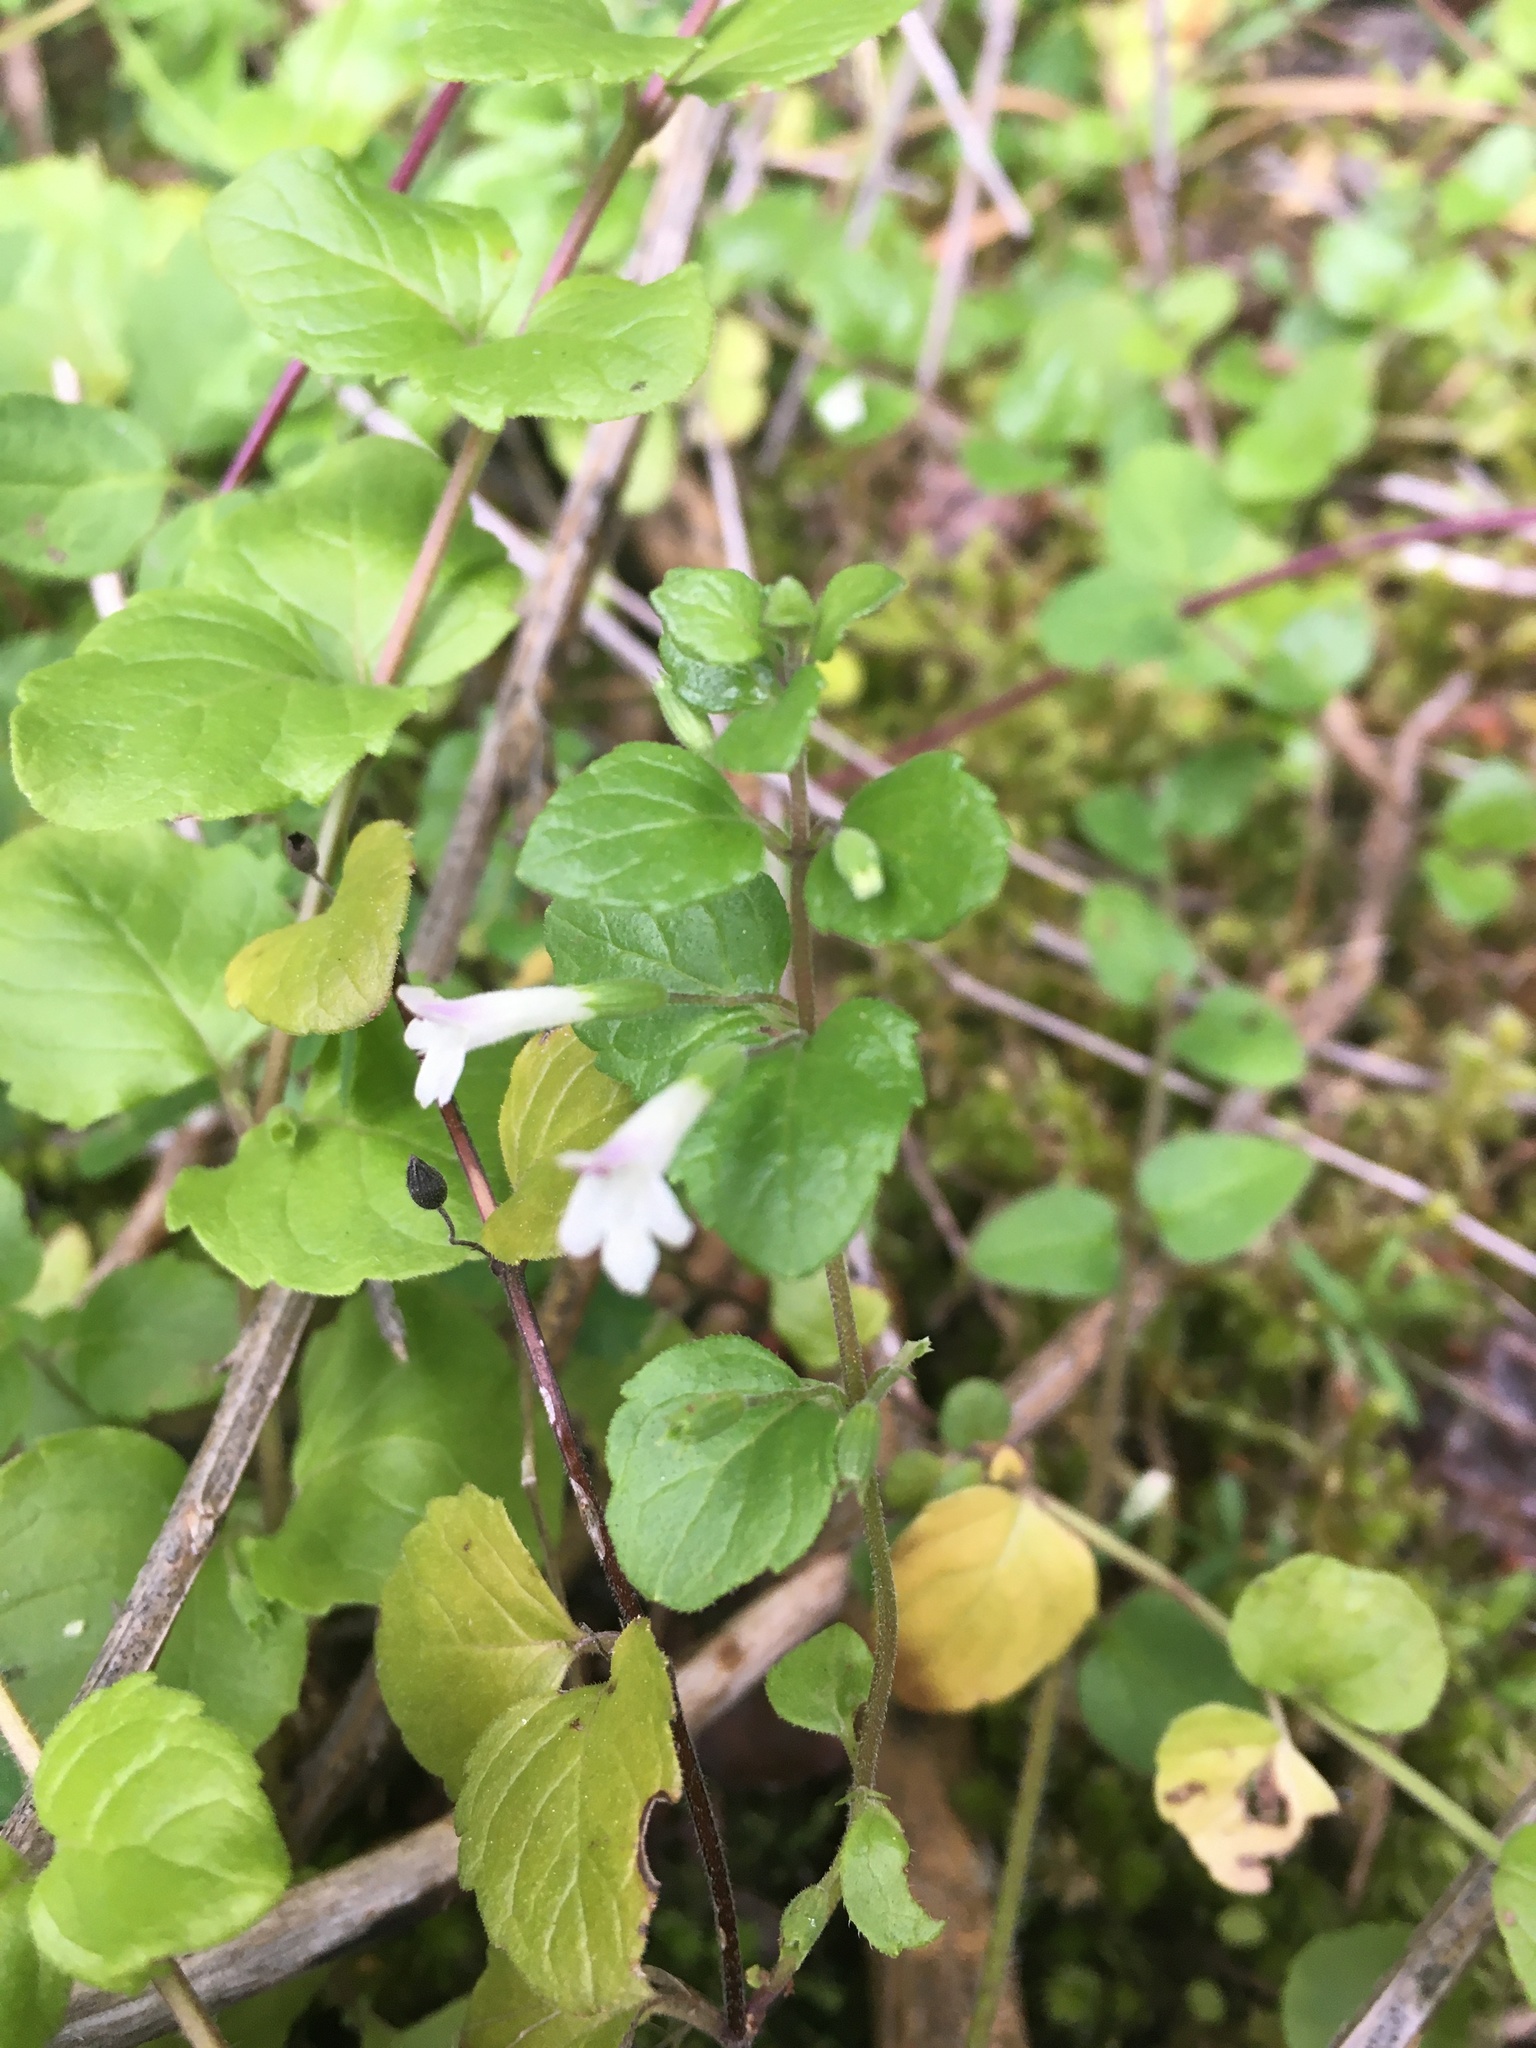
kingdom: Plantae
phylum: Tracheophyta
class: Magnoliopsida
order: Lamiales
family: Lamiaceae
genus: Micromeria
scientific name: Micromeria douglasii
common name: Yerba buena
